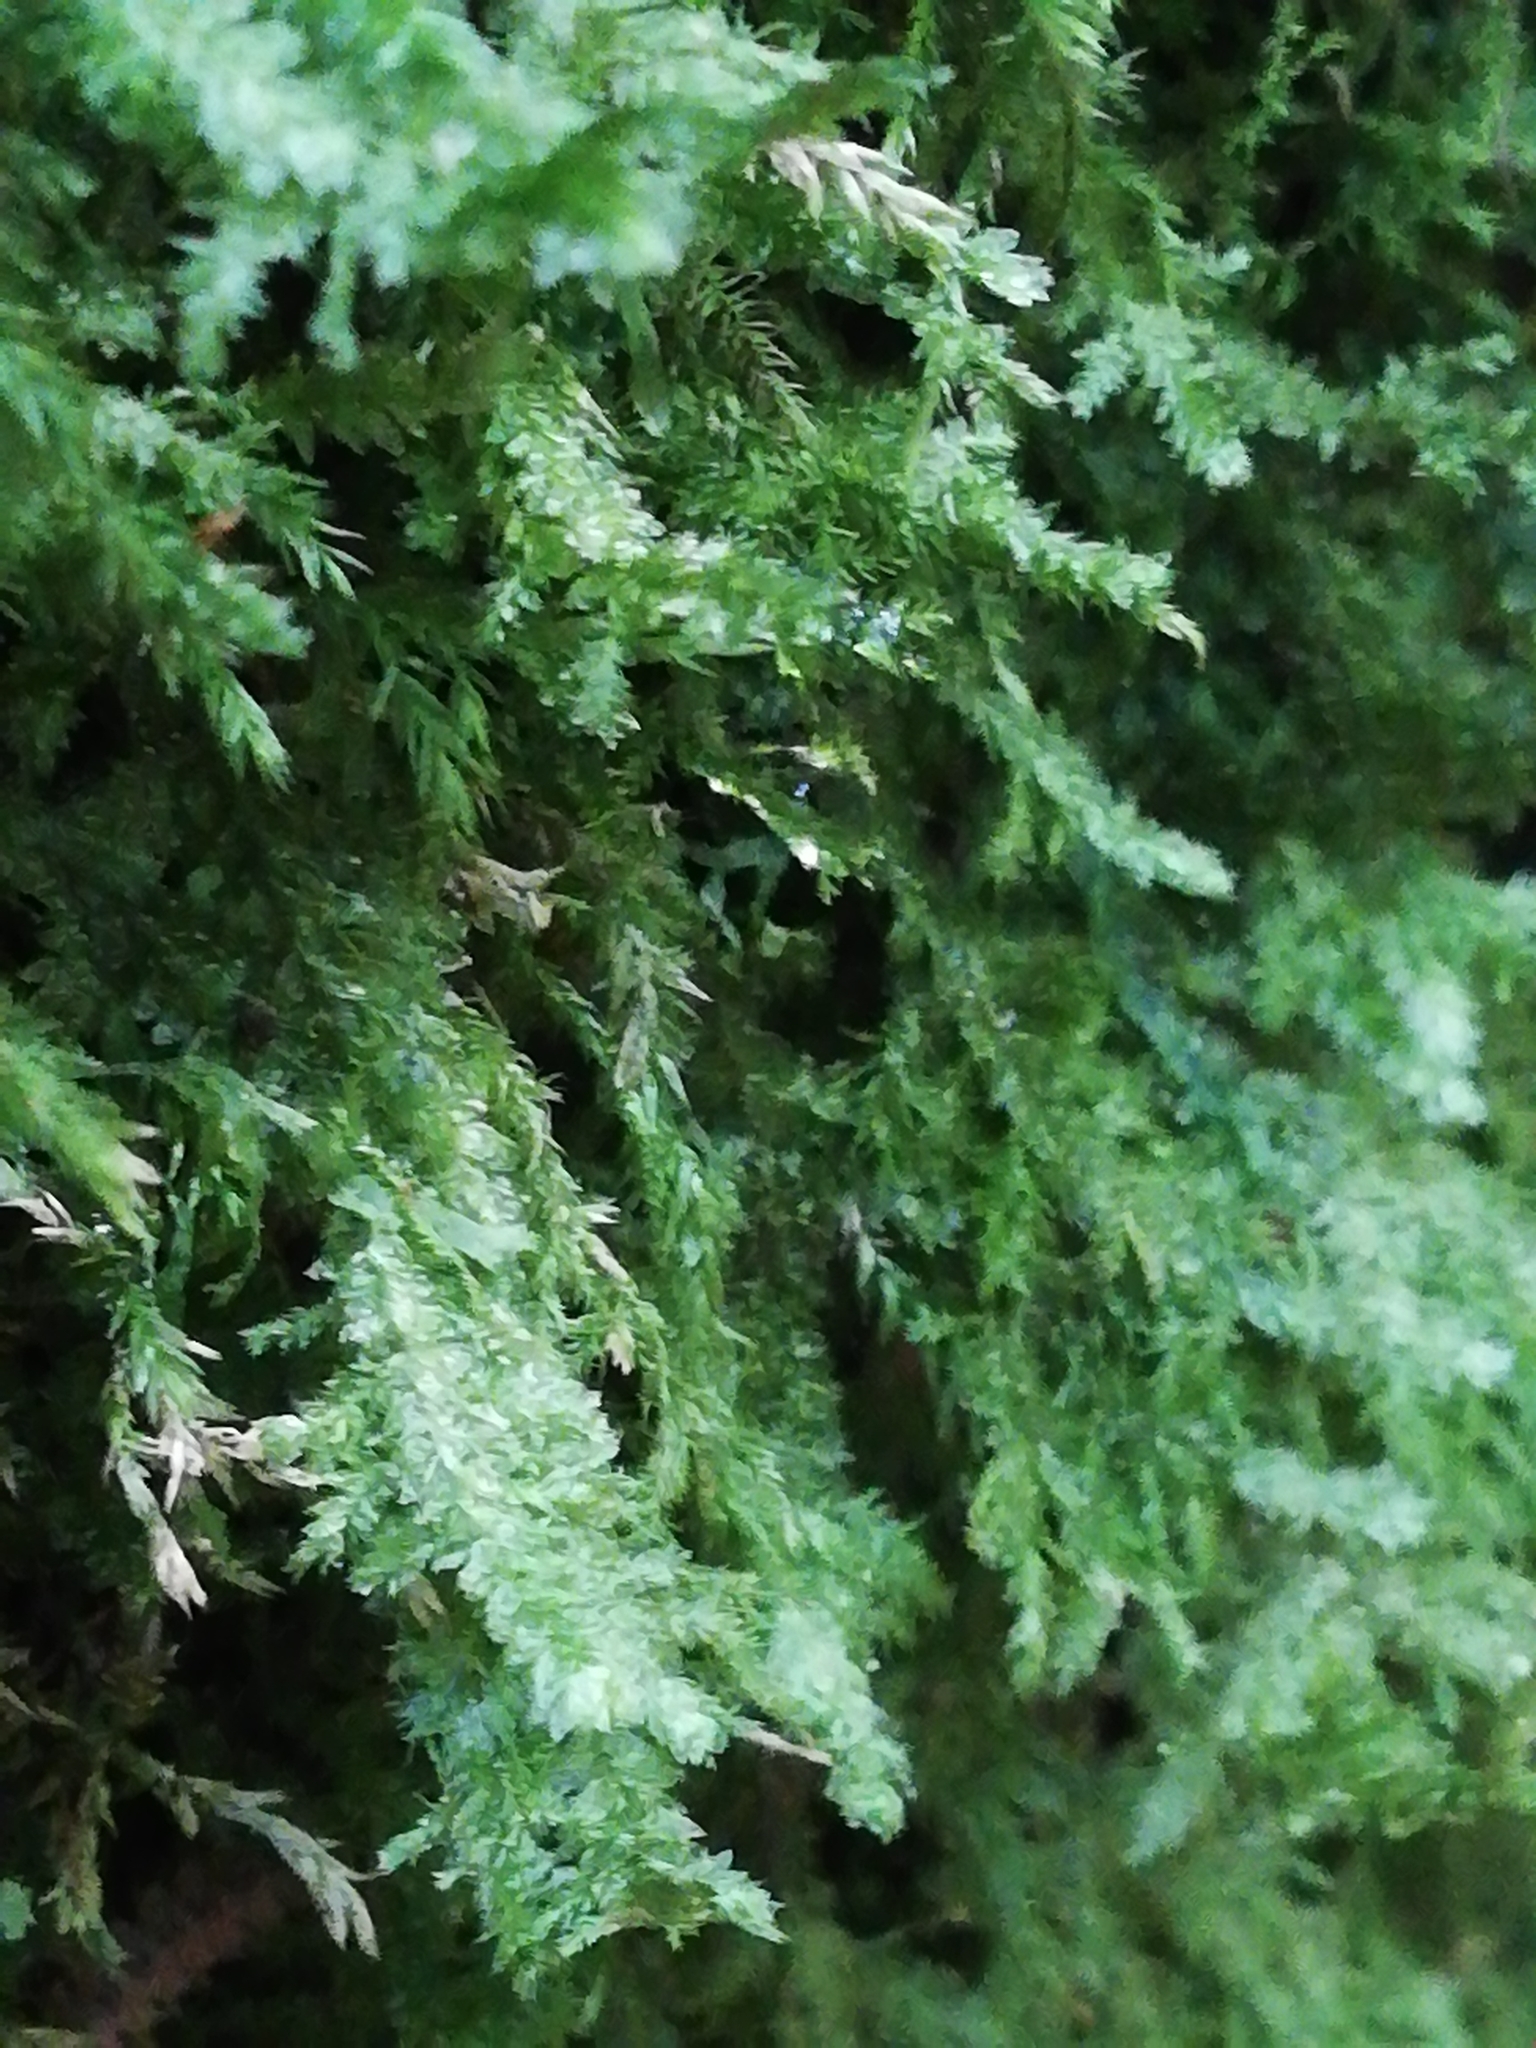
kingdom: Plantae
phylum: Bryophyta
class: Bryopsida
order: Hypnales
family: Neckeraceae
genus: Alleniella
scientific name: Alleniella complanata
